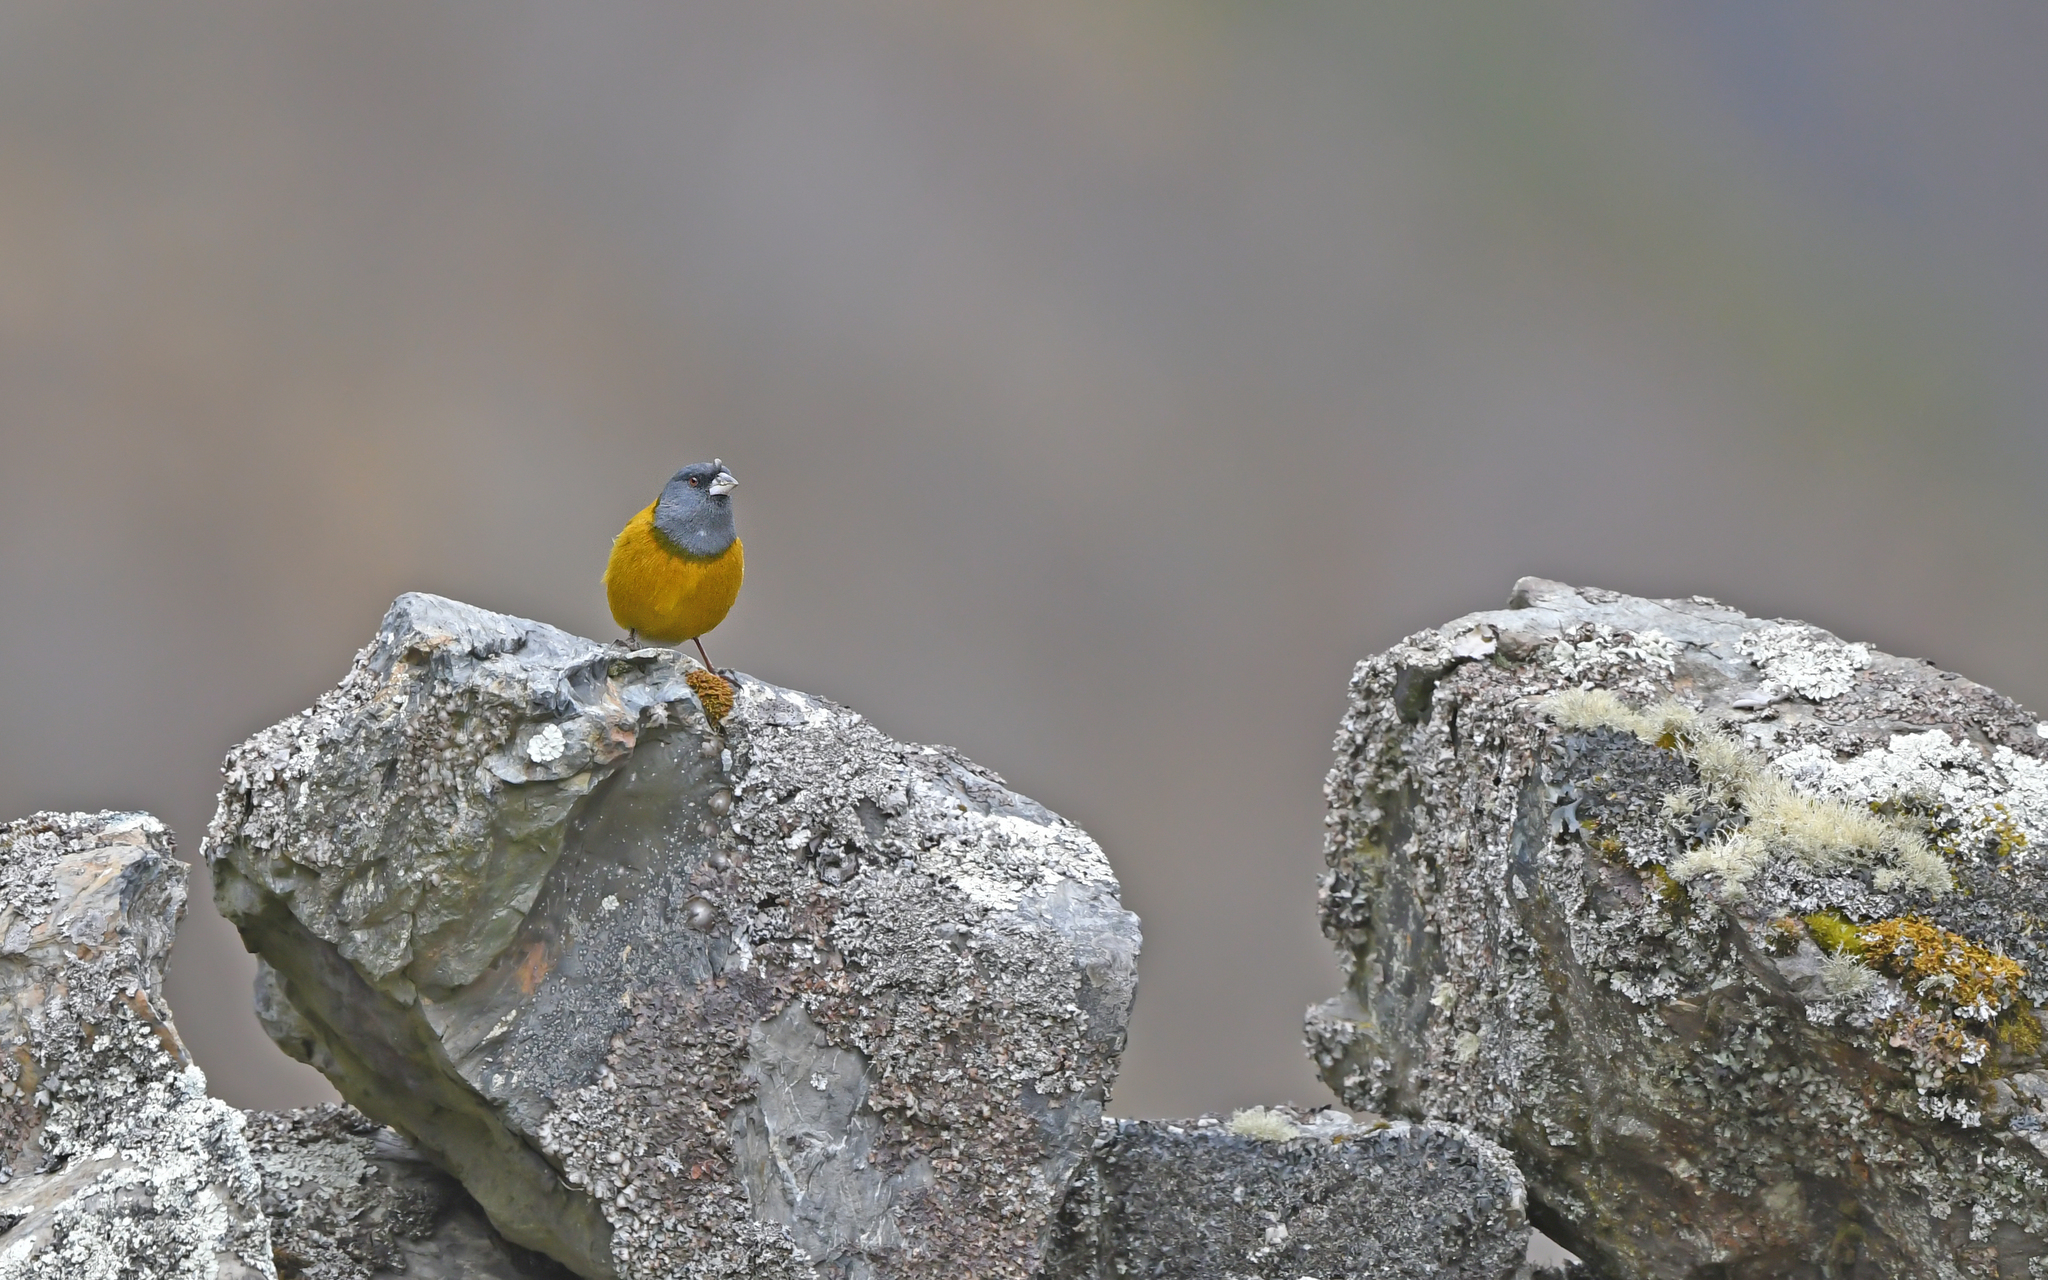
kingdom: Animalia
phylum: Chordata
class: Aves
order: Passeriformes
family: Thraupidae
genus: Phrygilus
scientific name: Phrygilus punensis
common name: Peruvian sierra finch
